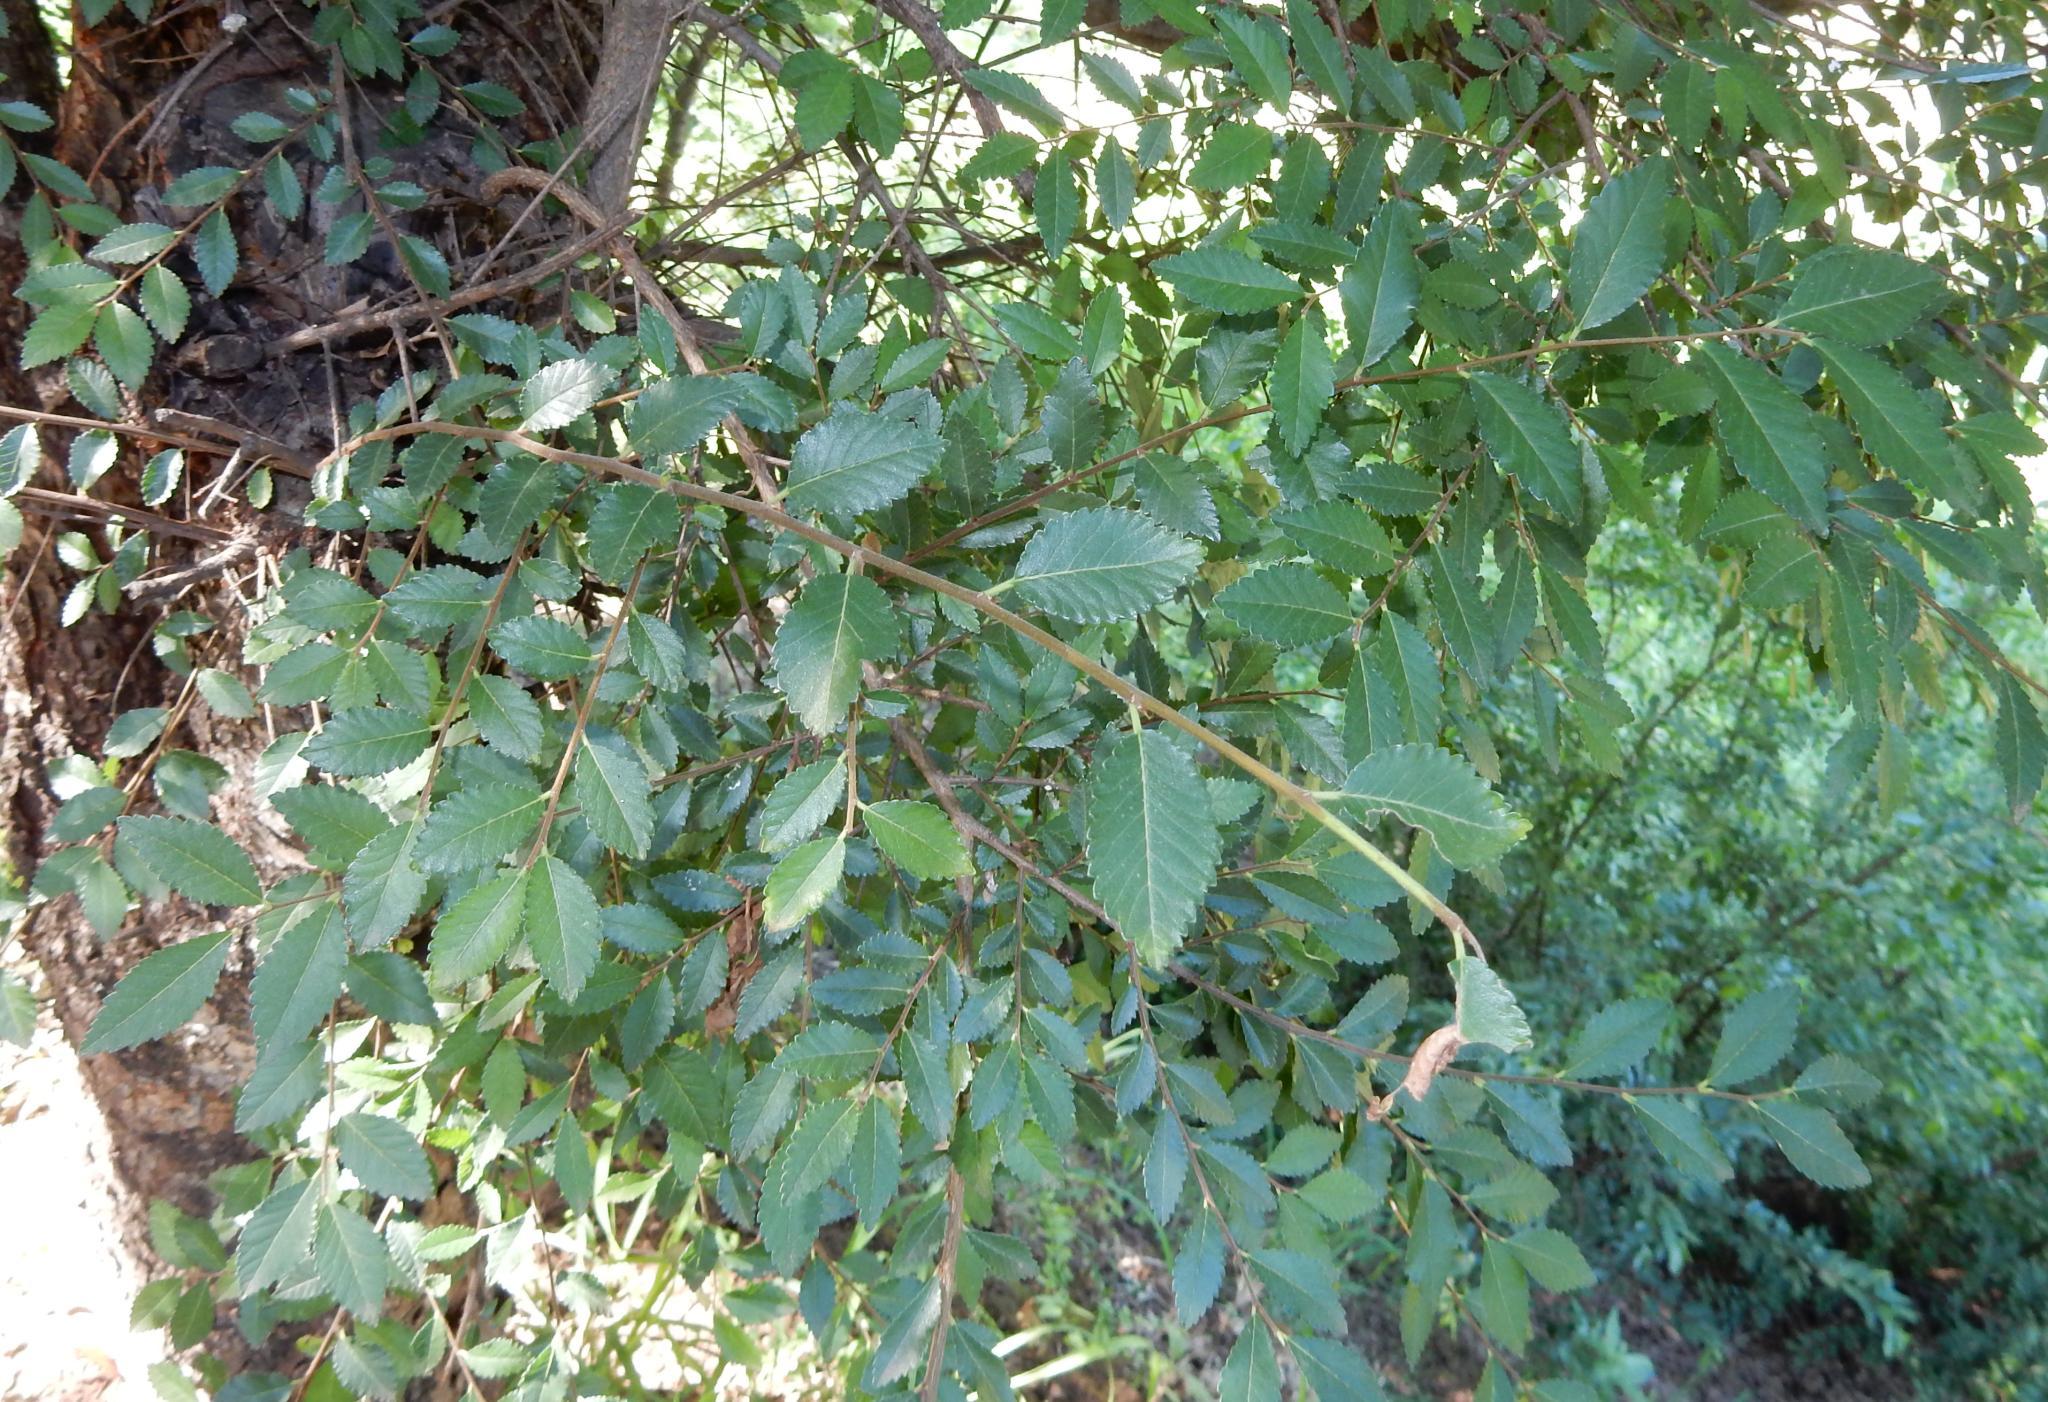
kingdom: Plantae
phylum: Tracheophyta
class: Magnoliopsida
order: Rosales
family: Ulmaceae
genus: Ulmus
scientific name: Ulmus parvifolia
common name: Chinese elm
